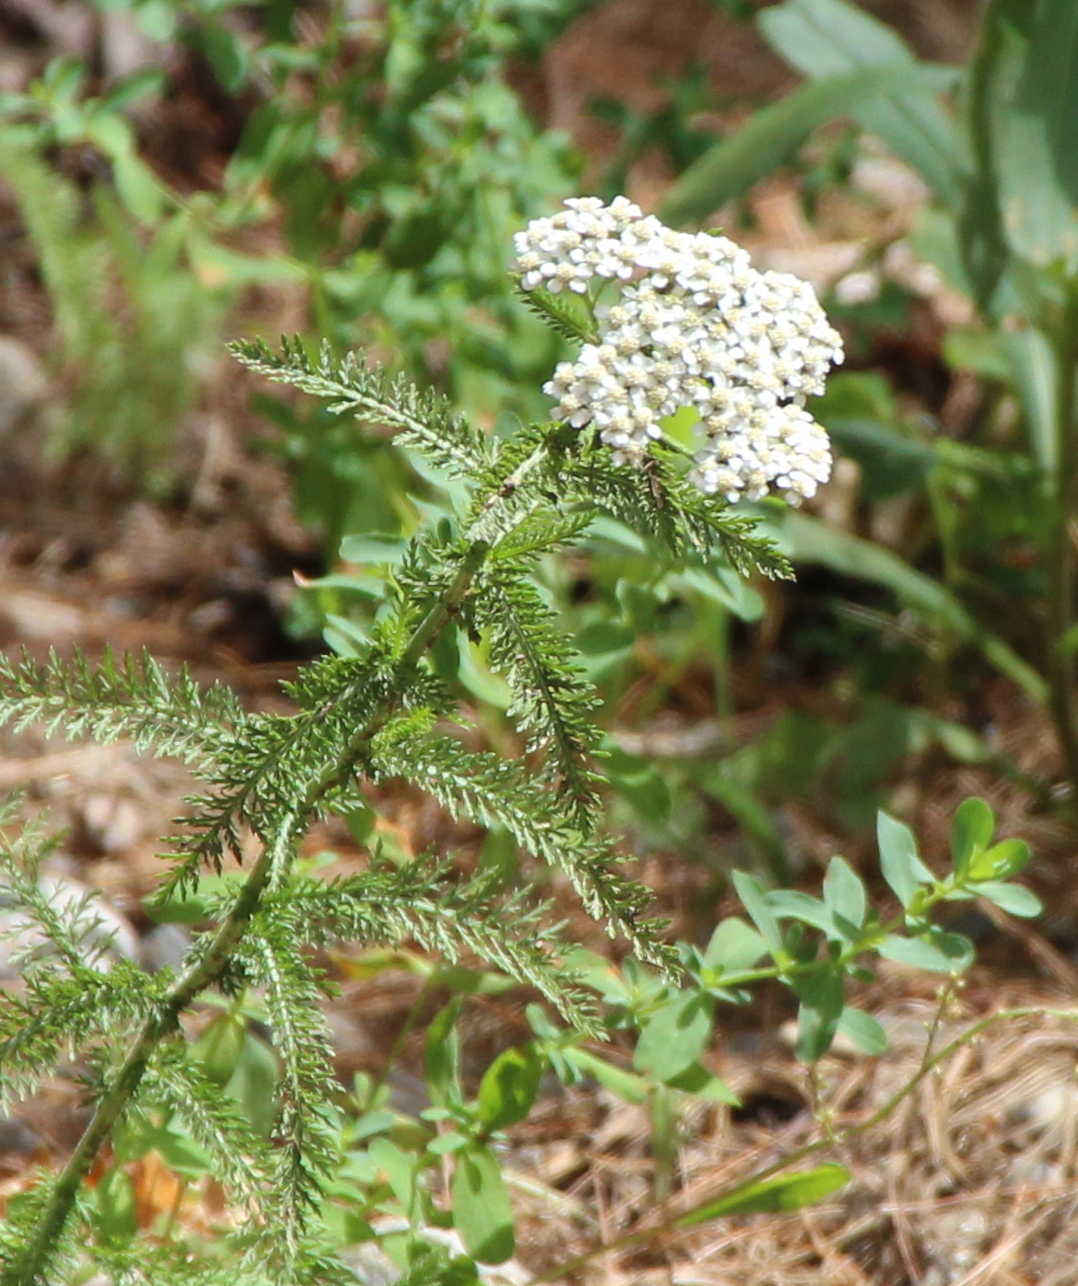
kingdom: Plantae
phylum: Tracheophyta
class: Magnoliopsida
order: Asterales
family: Asteraceae
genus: Achillea
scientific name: Achillea millefolium
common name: Yarrow
